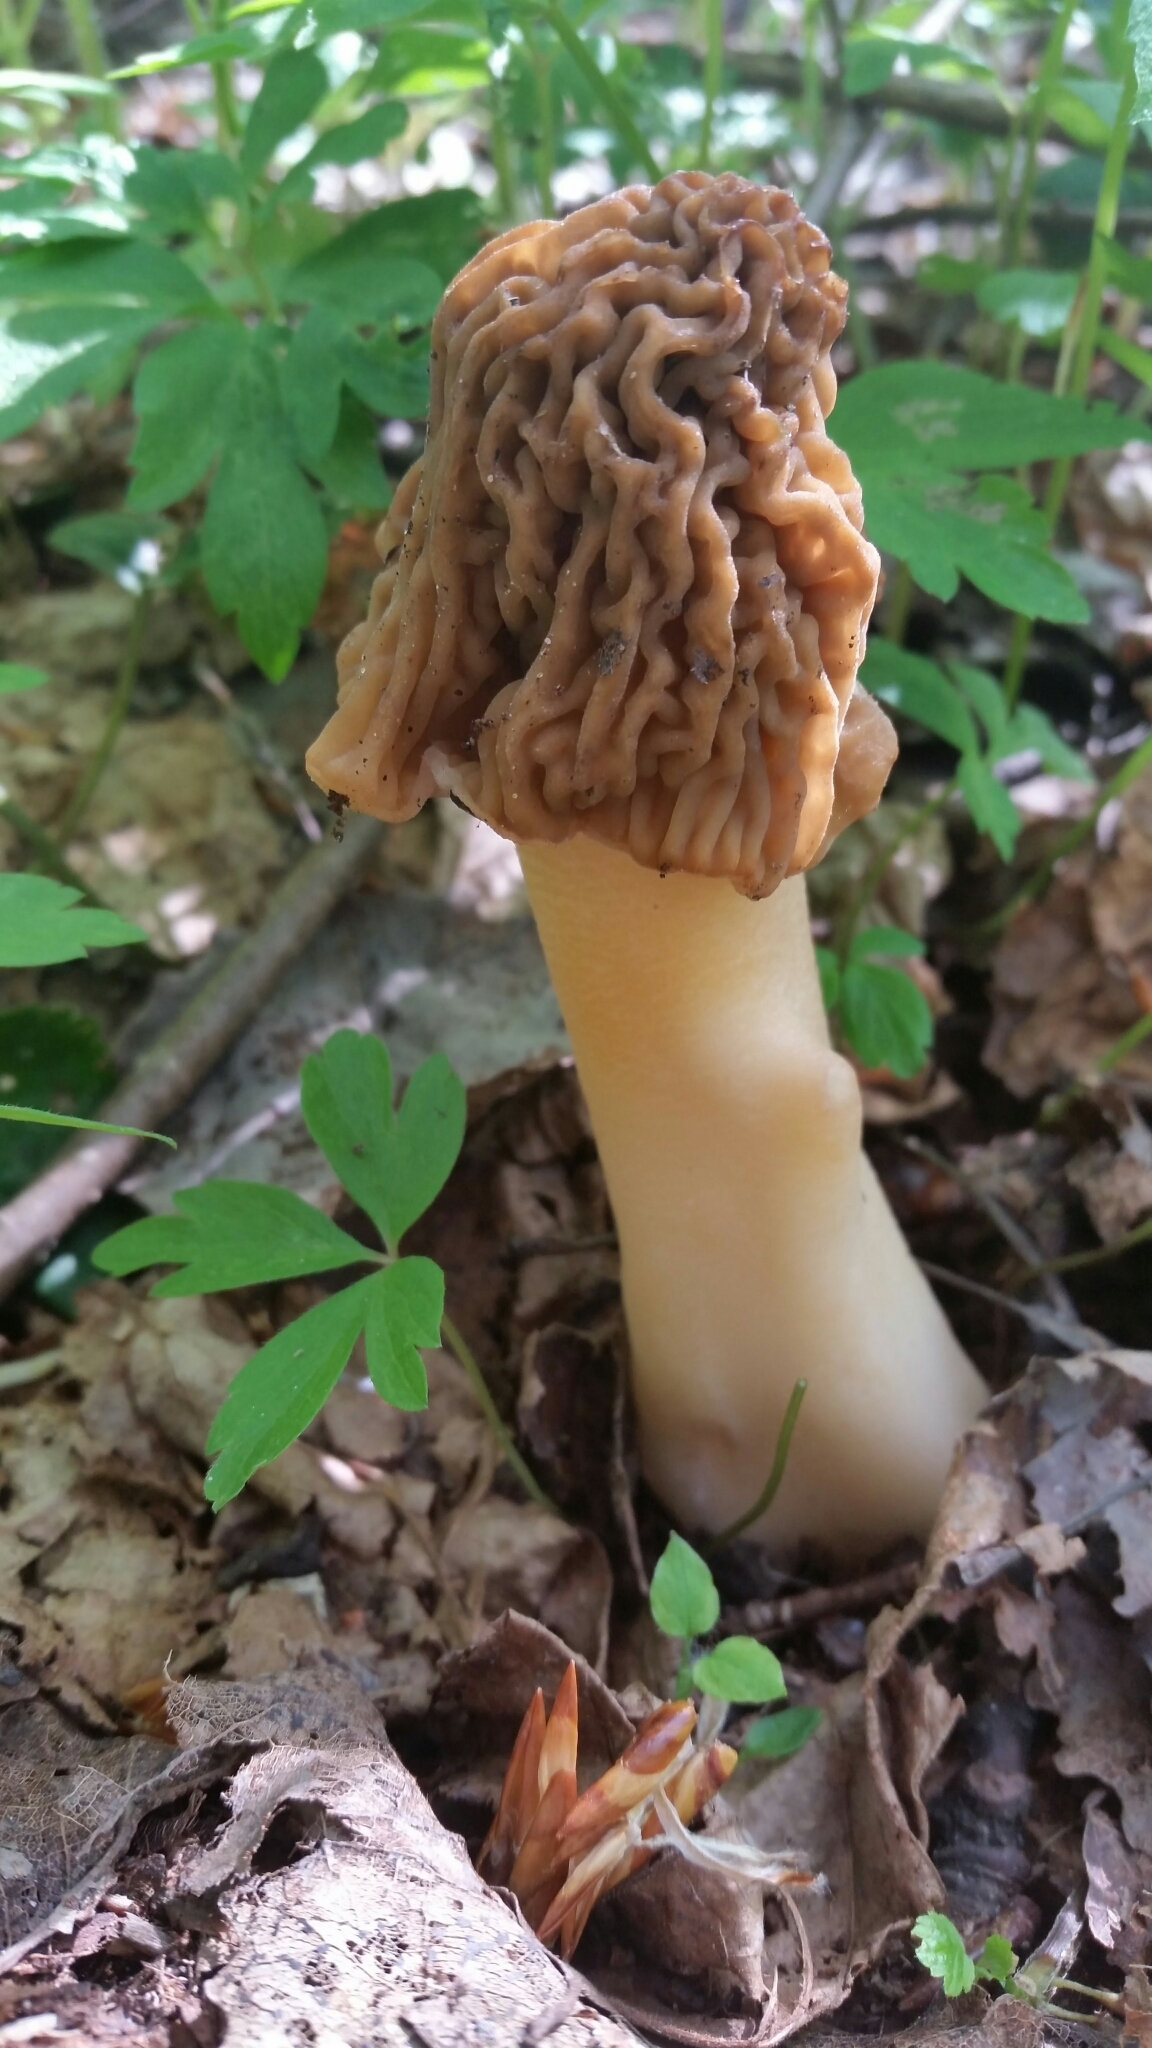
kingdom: Fungi
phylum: Ascomycota
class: Pezizomycetes
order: Pezizales
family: Morchellaceae
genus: Verpa
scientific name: Verpa bohemica
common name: Wrinkled thimble morel
